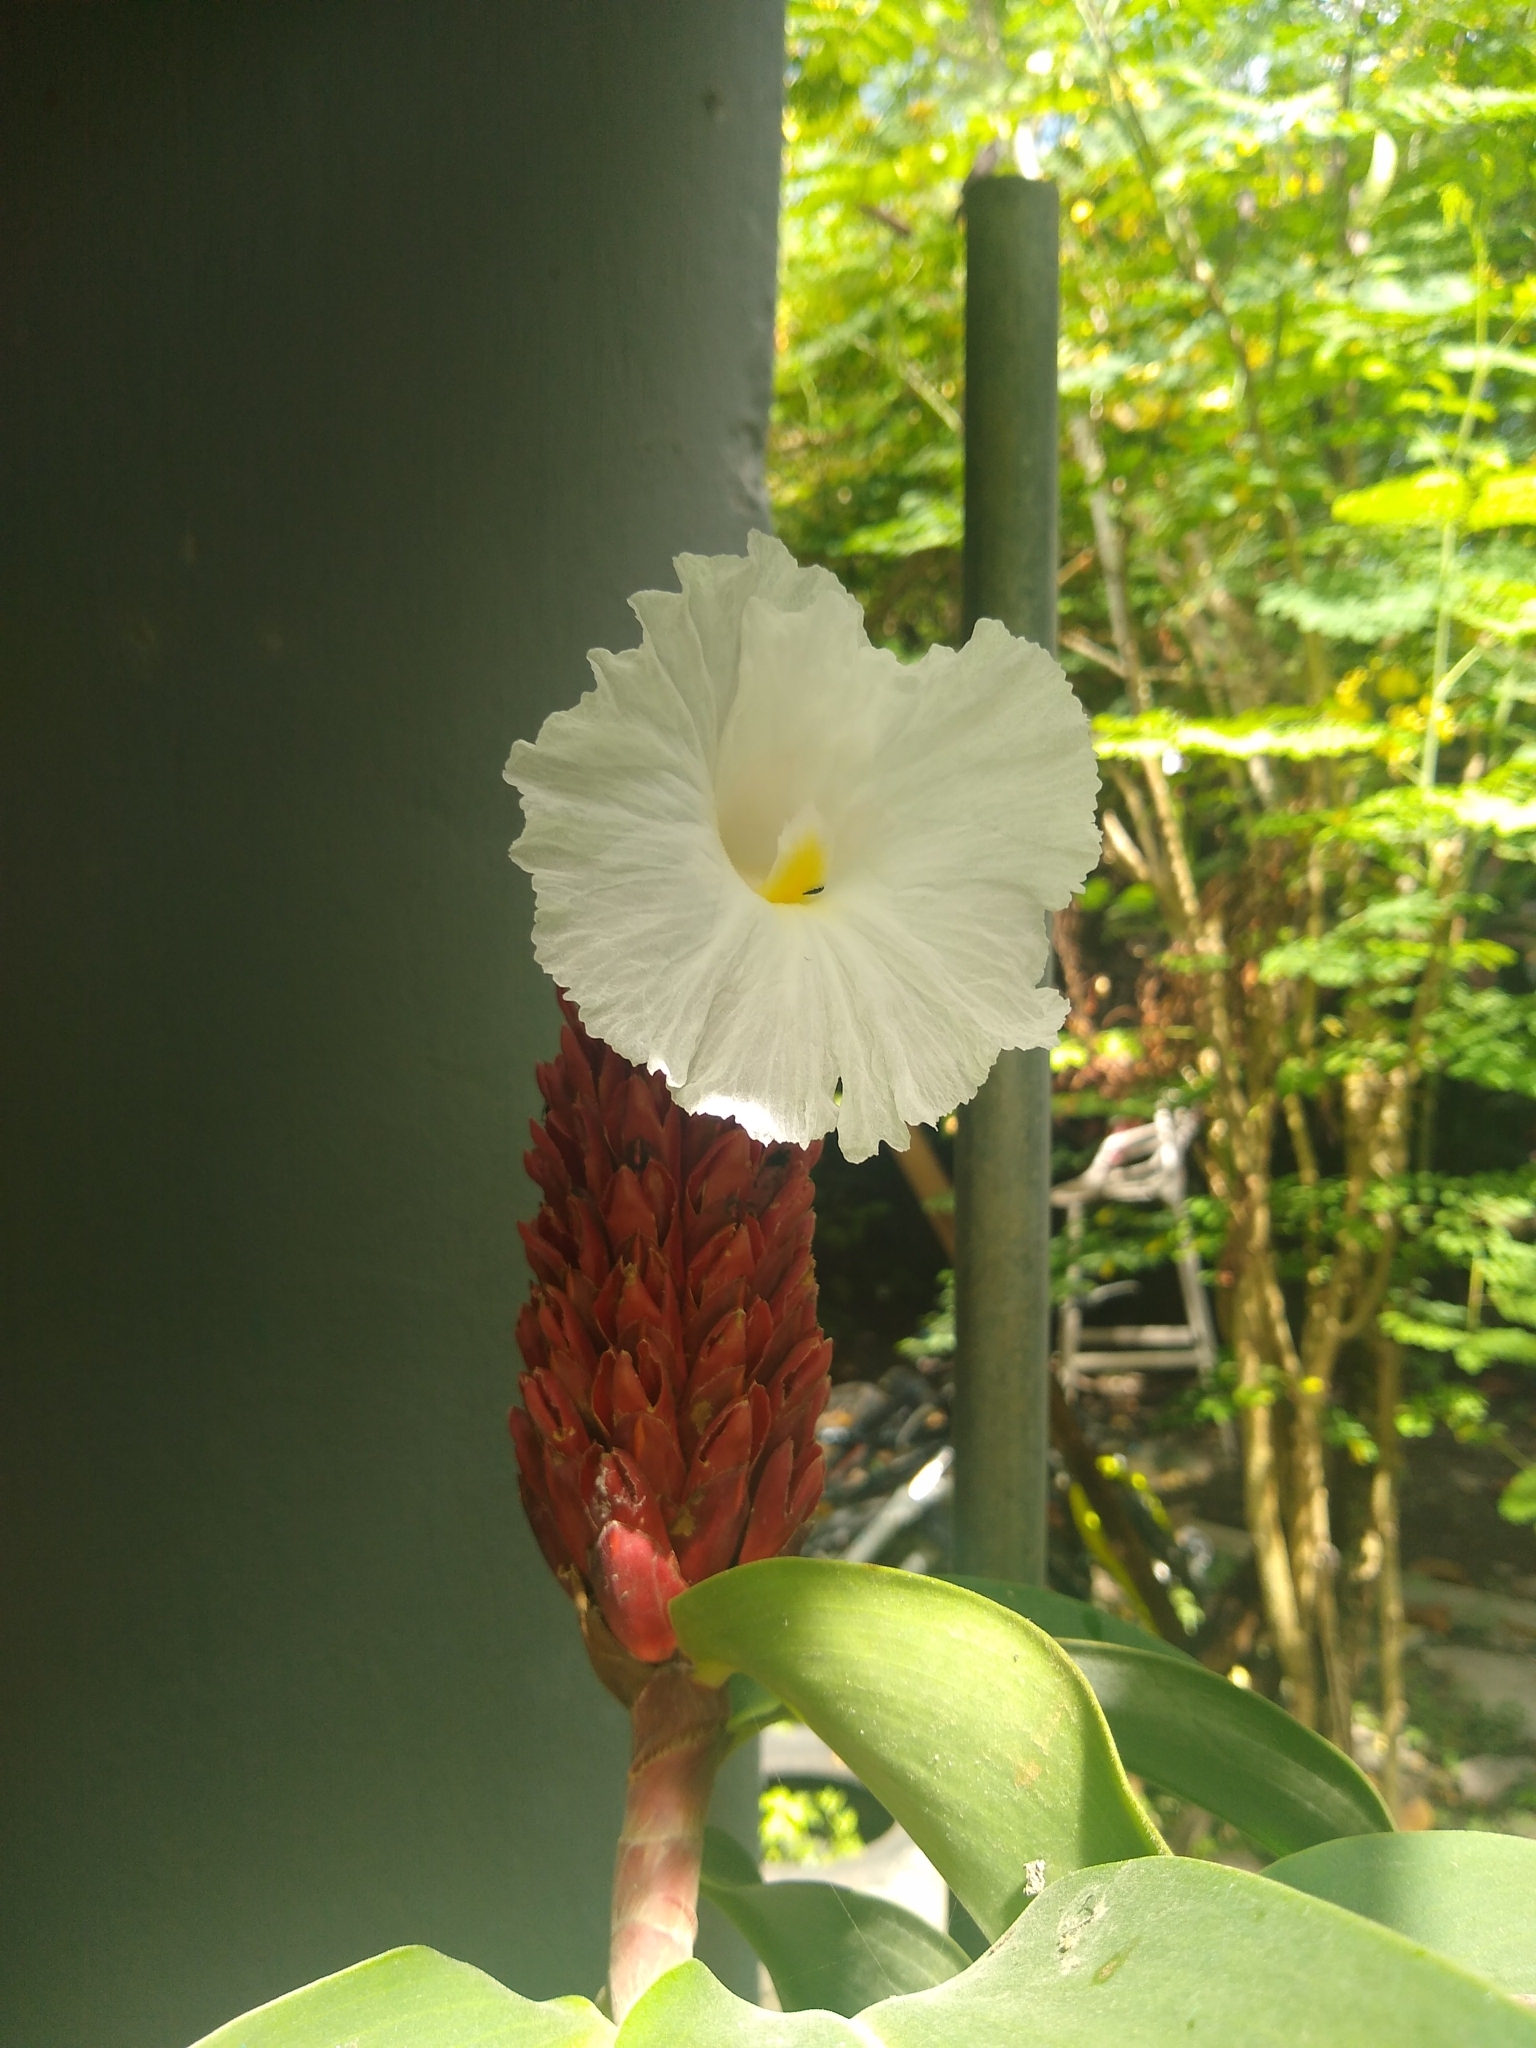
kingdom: Plantae
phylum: Tracheophyta
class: Liliopsida
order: Zingiberales
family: Costaceae
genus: Hellenia
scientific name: Hellenia speciosa
